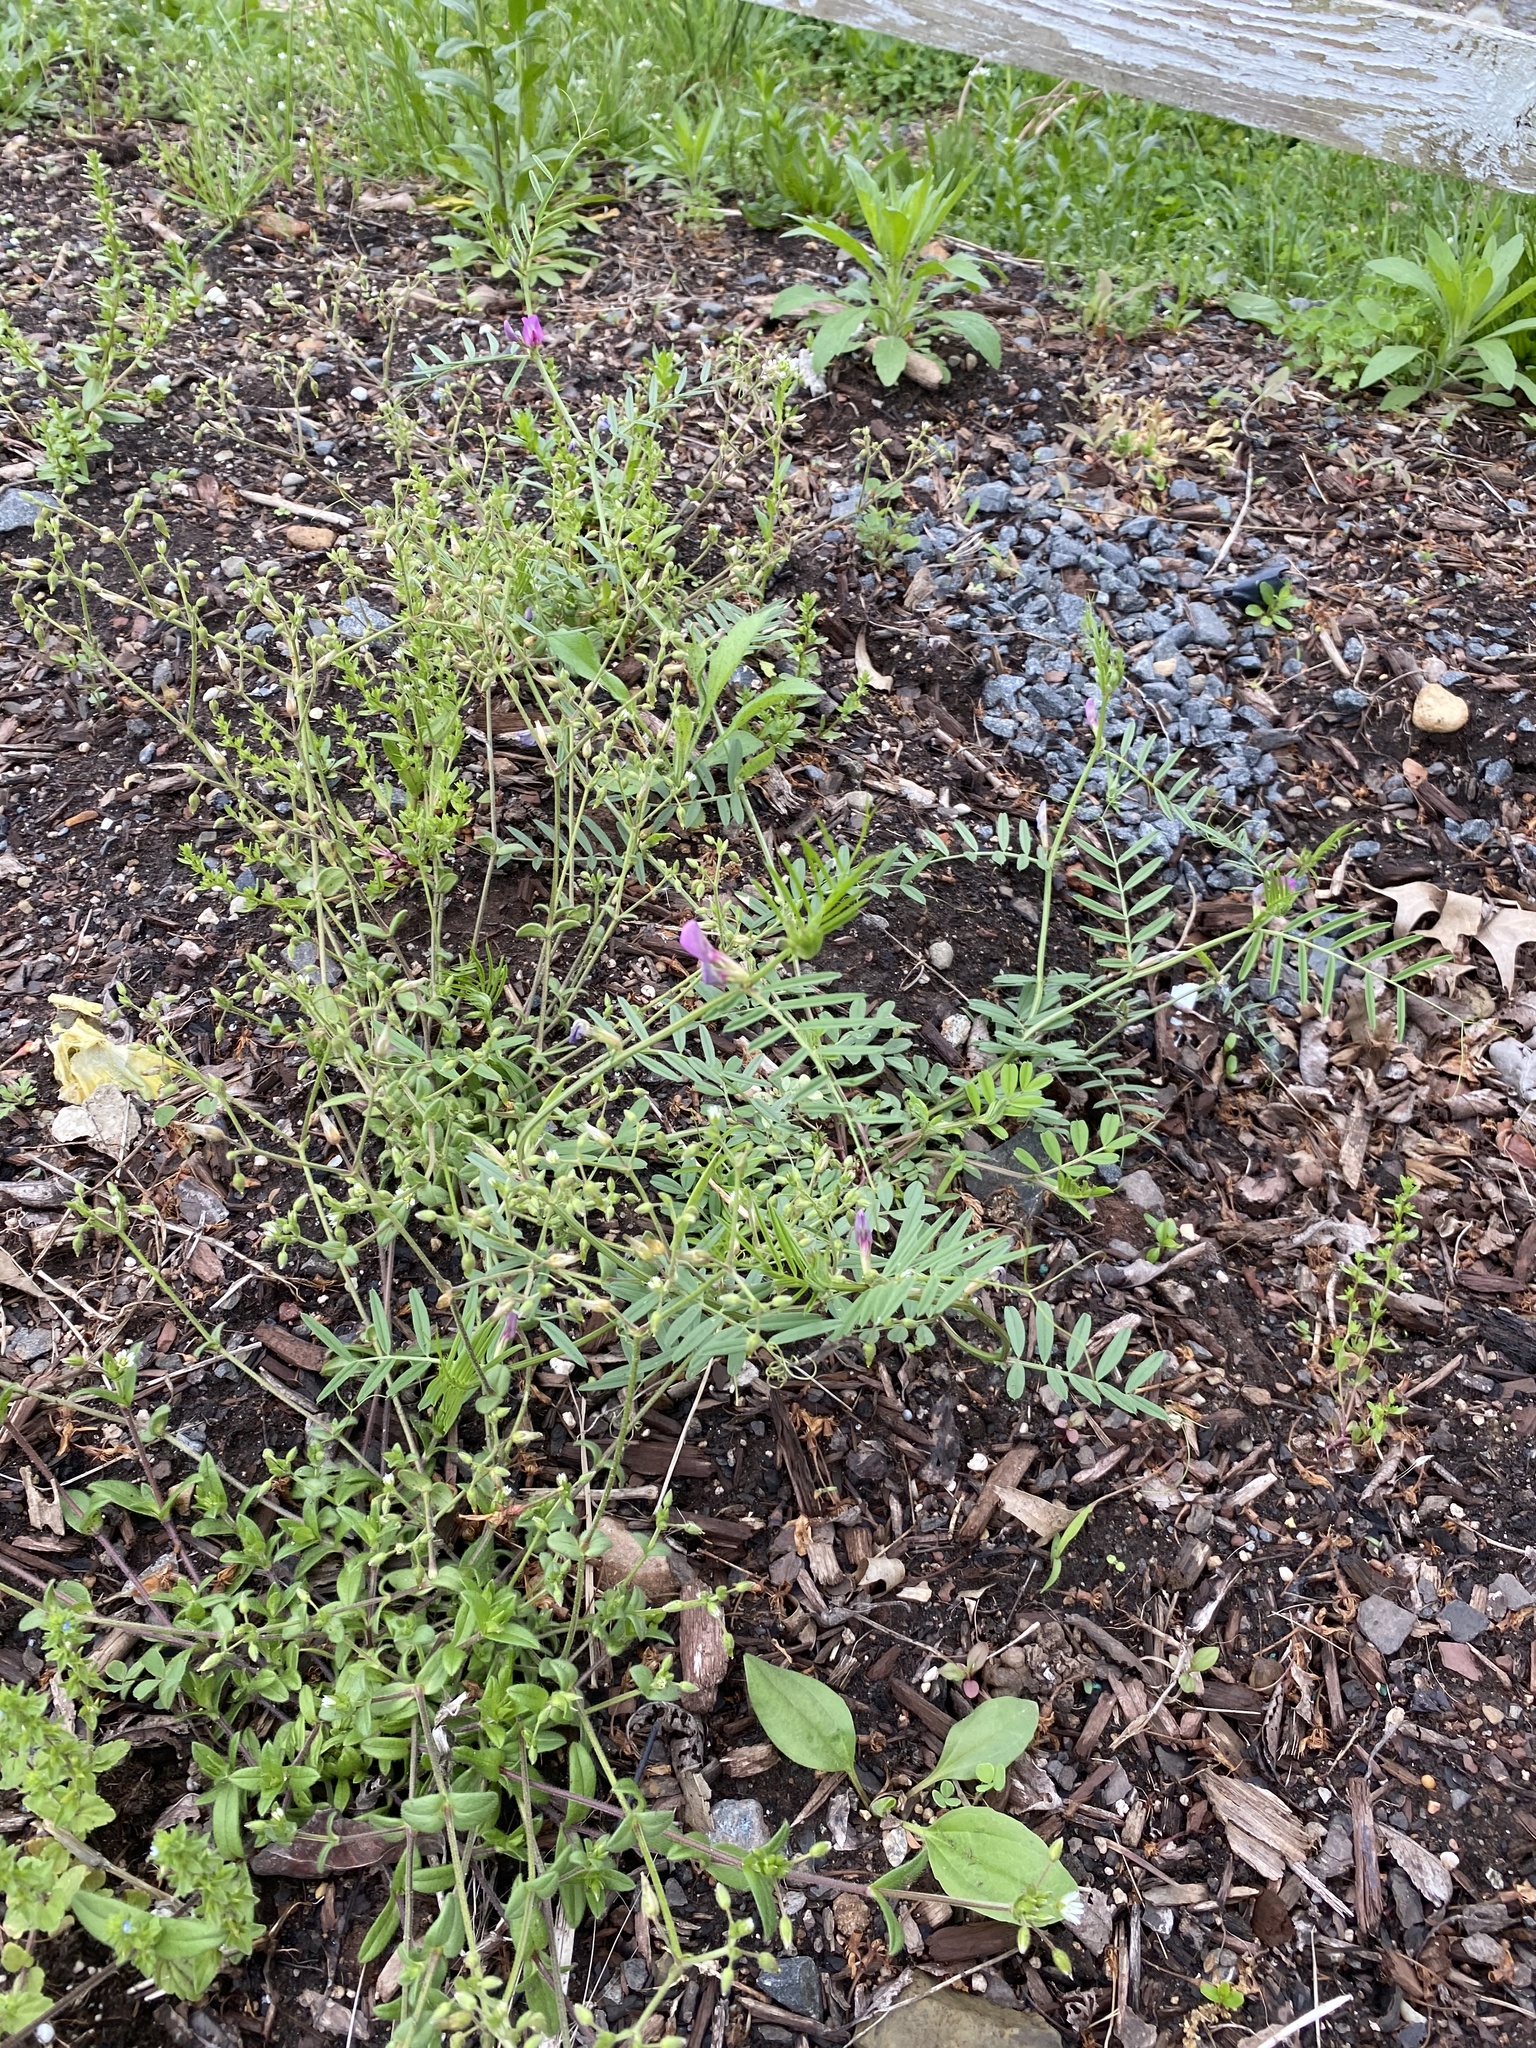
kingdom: Plantae
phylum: Tracheophyta
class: Magnoliopsida
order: Fabales
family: Fabaceae
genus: Vicia
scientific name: Vicia sativa
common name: Garden vetch
